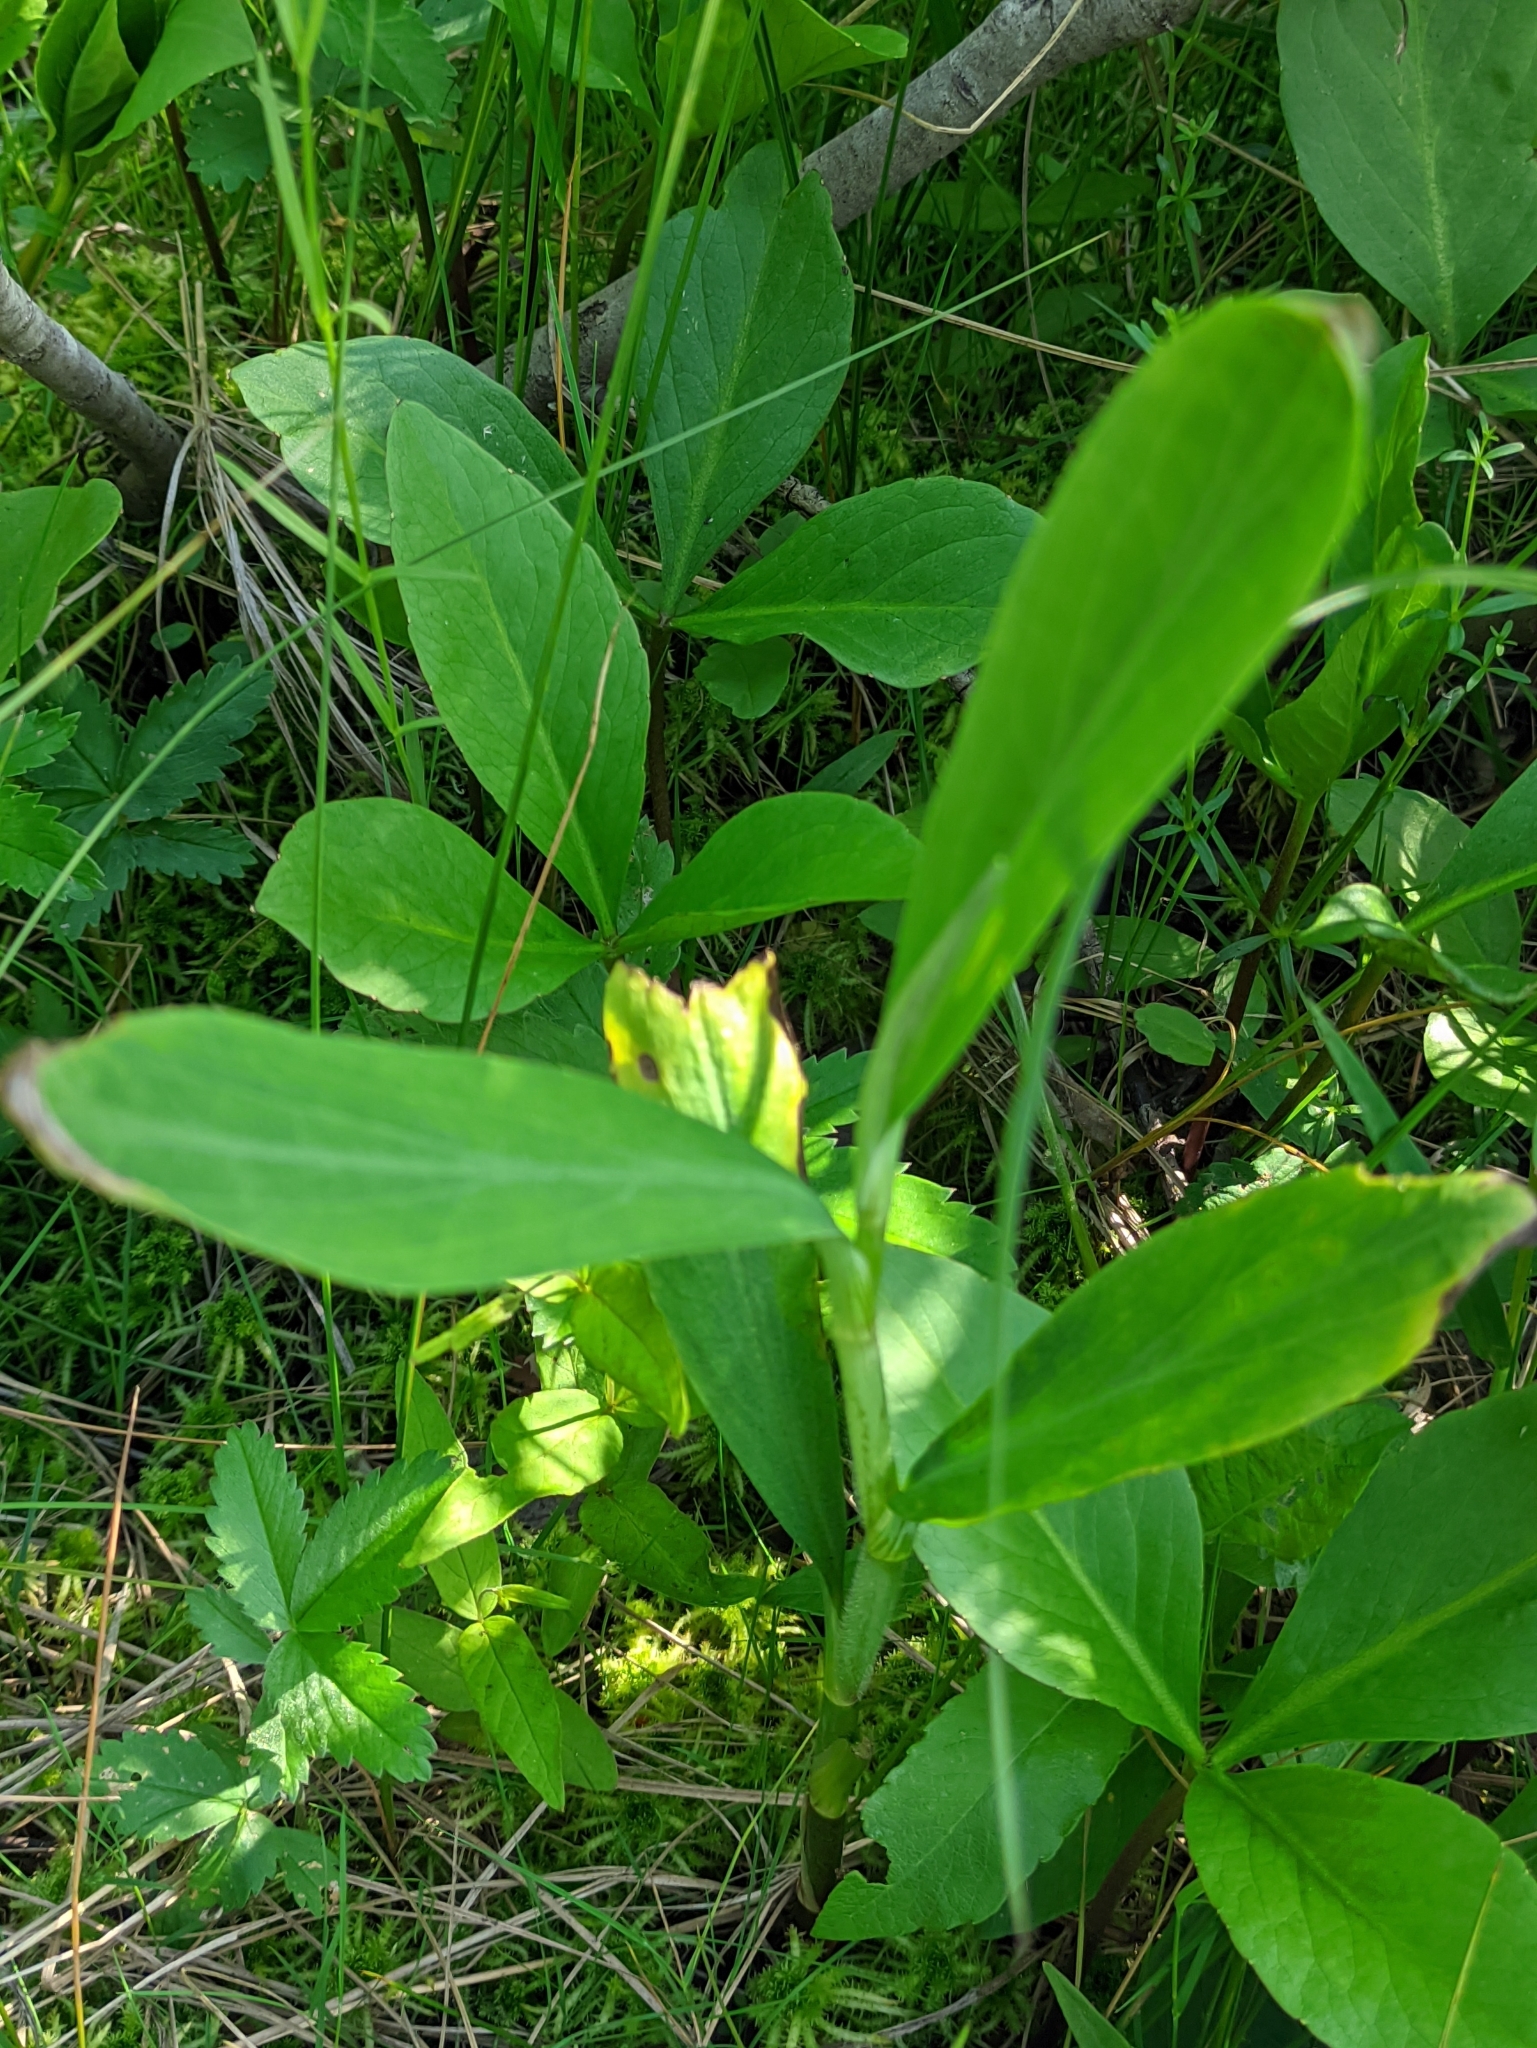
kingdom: Plantae
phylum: Tracheophyta
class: Magnoliopsida
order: Ranunculales
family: Ranunculaceae
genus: Ranunculus
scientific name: Ranunculus lingua
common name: Greater spearwort
